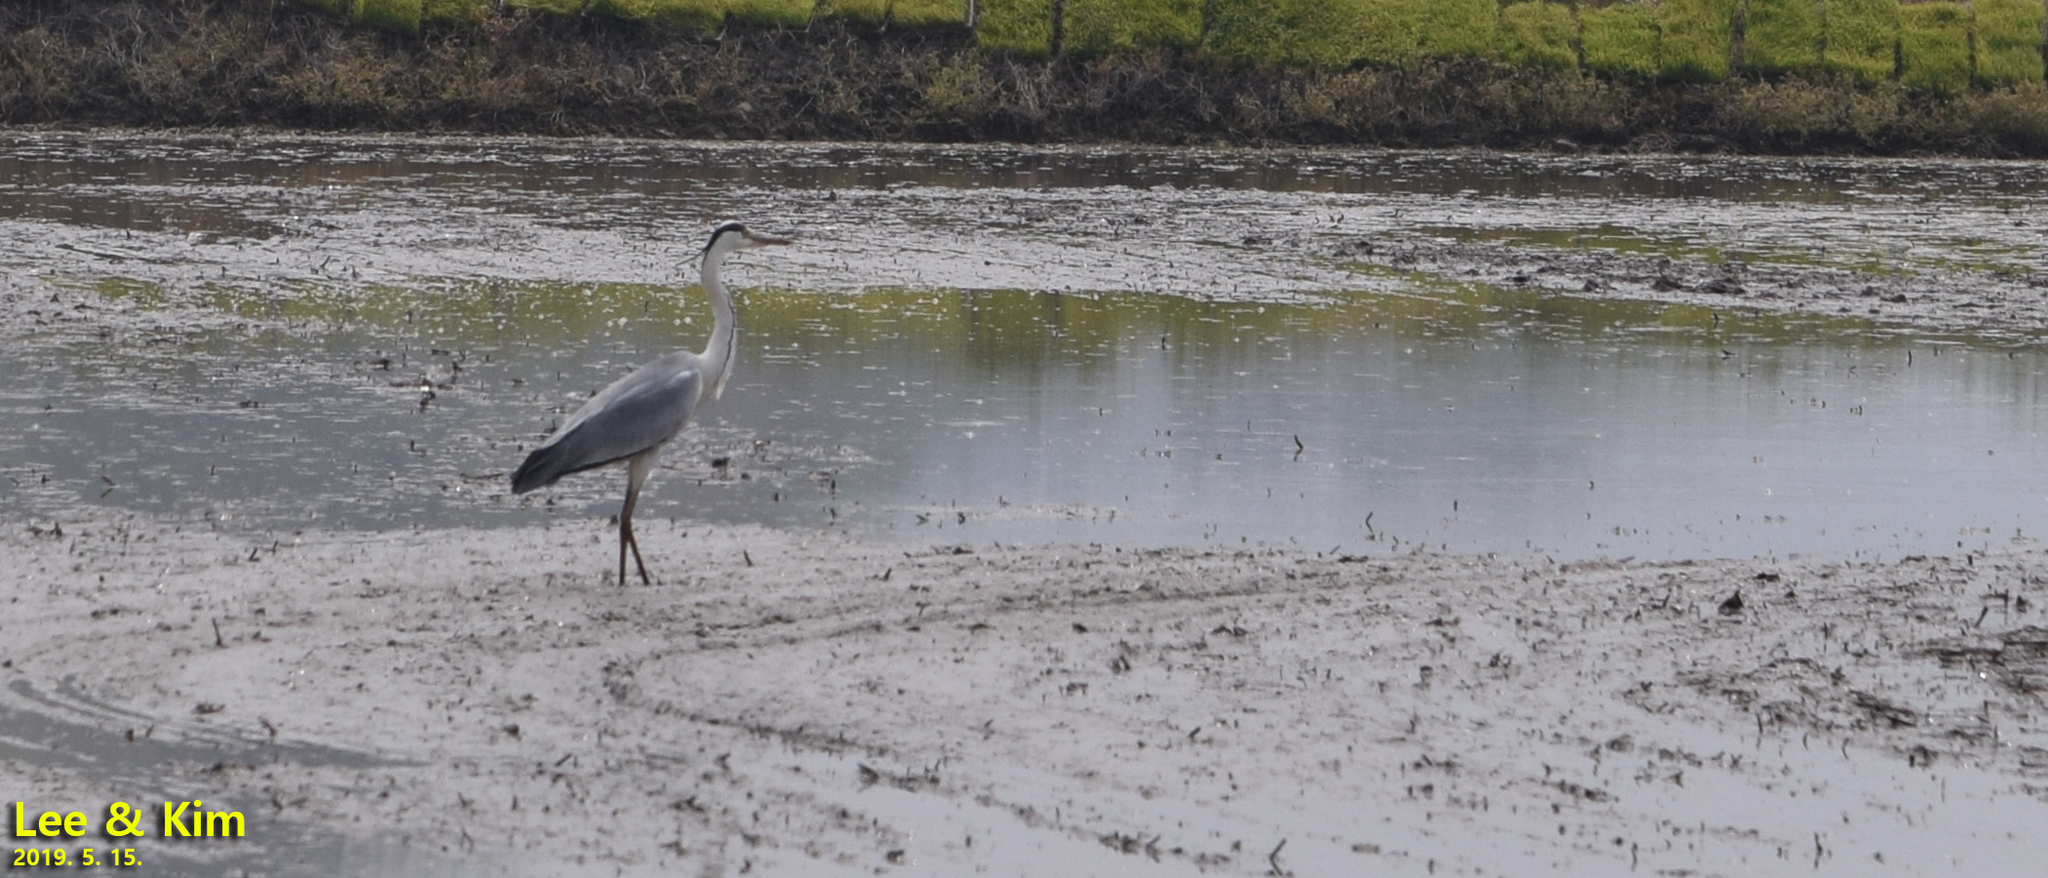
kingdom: Animalia
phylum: Chordata
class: Aves
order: Pelecaniformes
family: Ardeidae
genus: Ardea
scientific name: Ardea cinerea
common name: Grey heron
